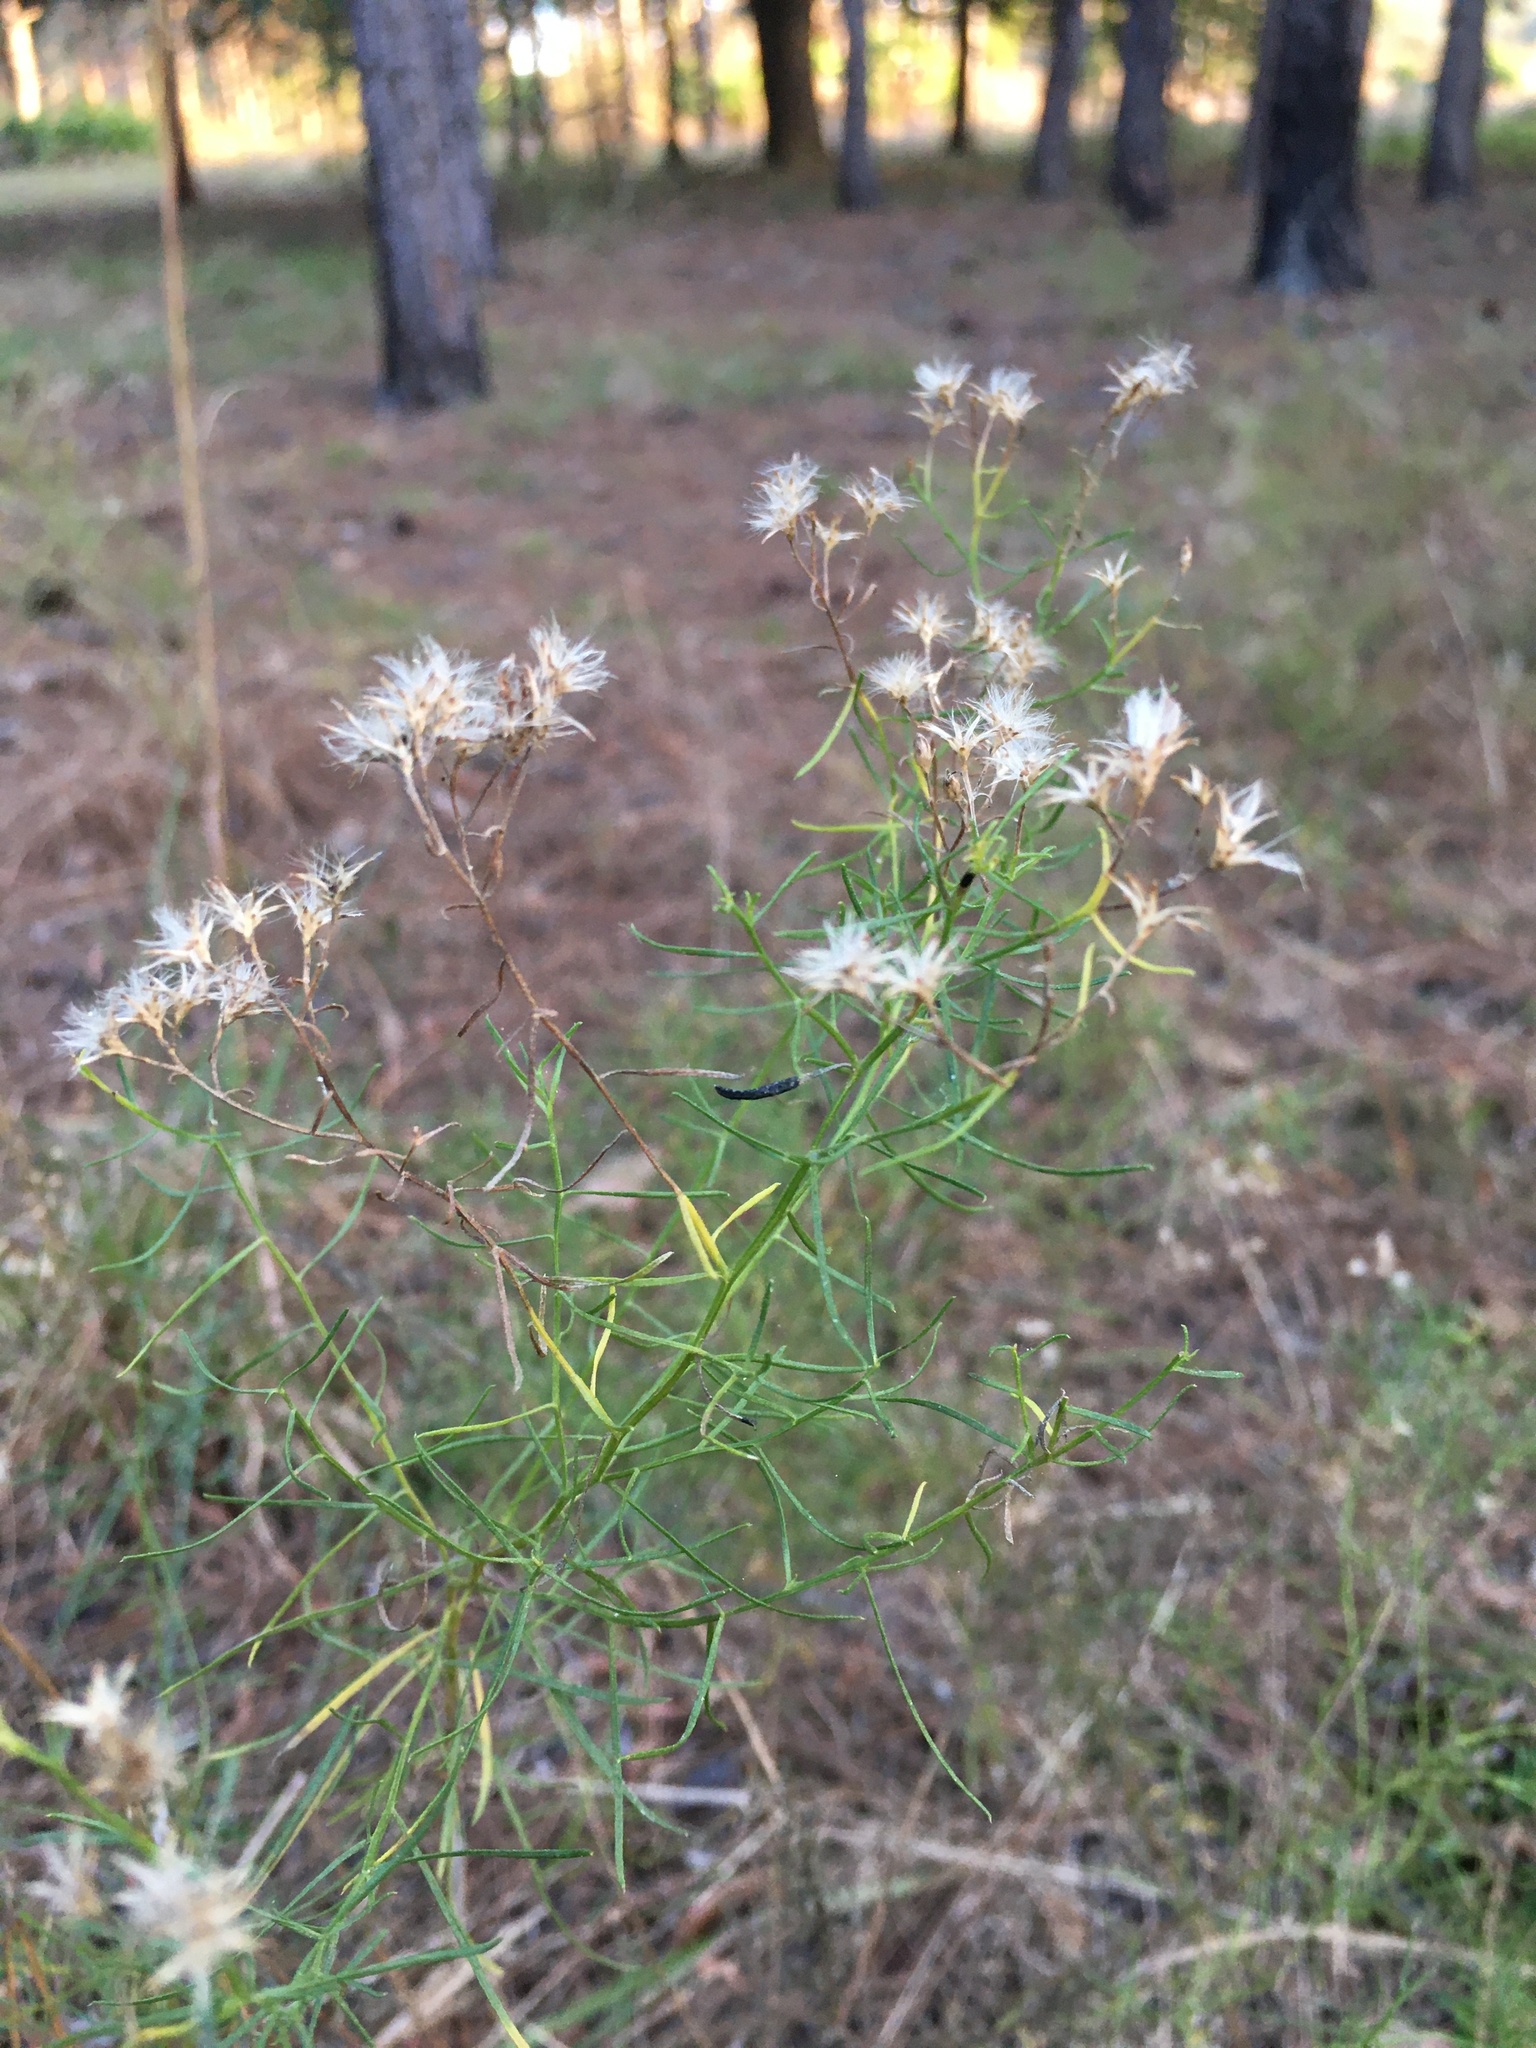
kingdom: Plantae
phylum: Tracheophyta
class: Magnoliopsida
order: Asterales
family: Asteraceae
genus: Euthamia
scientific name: Euthamia caroliniana
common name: Coastal plain goldentop
